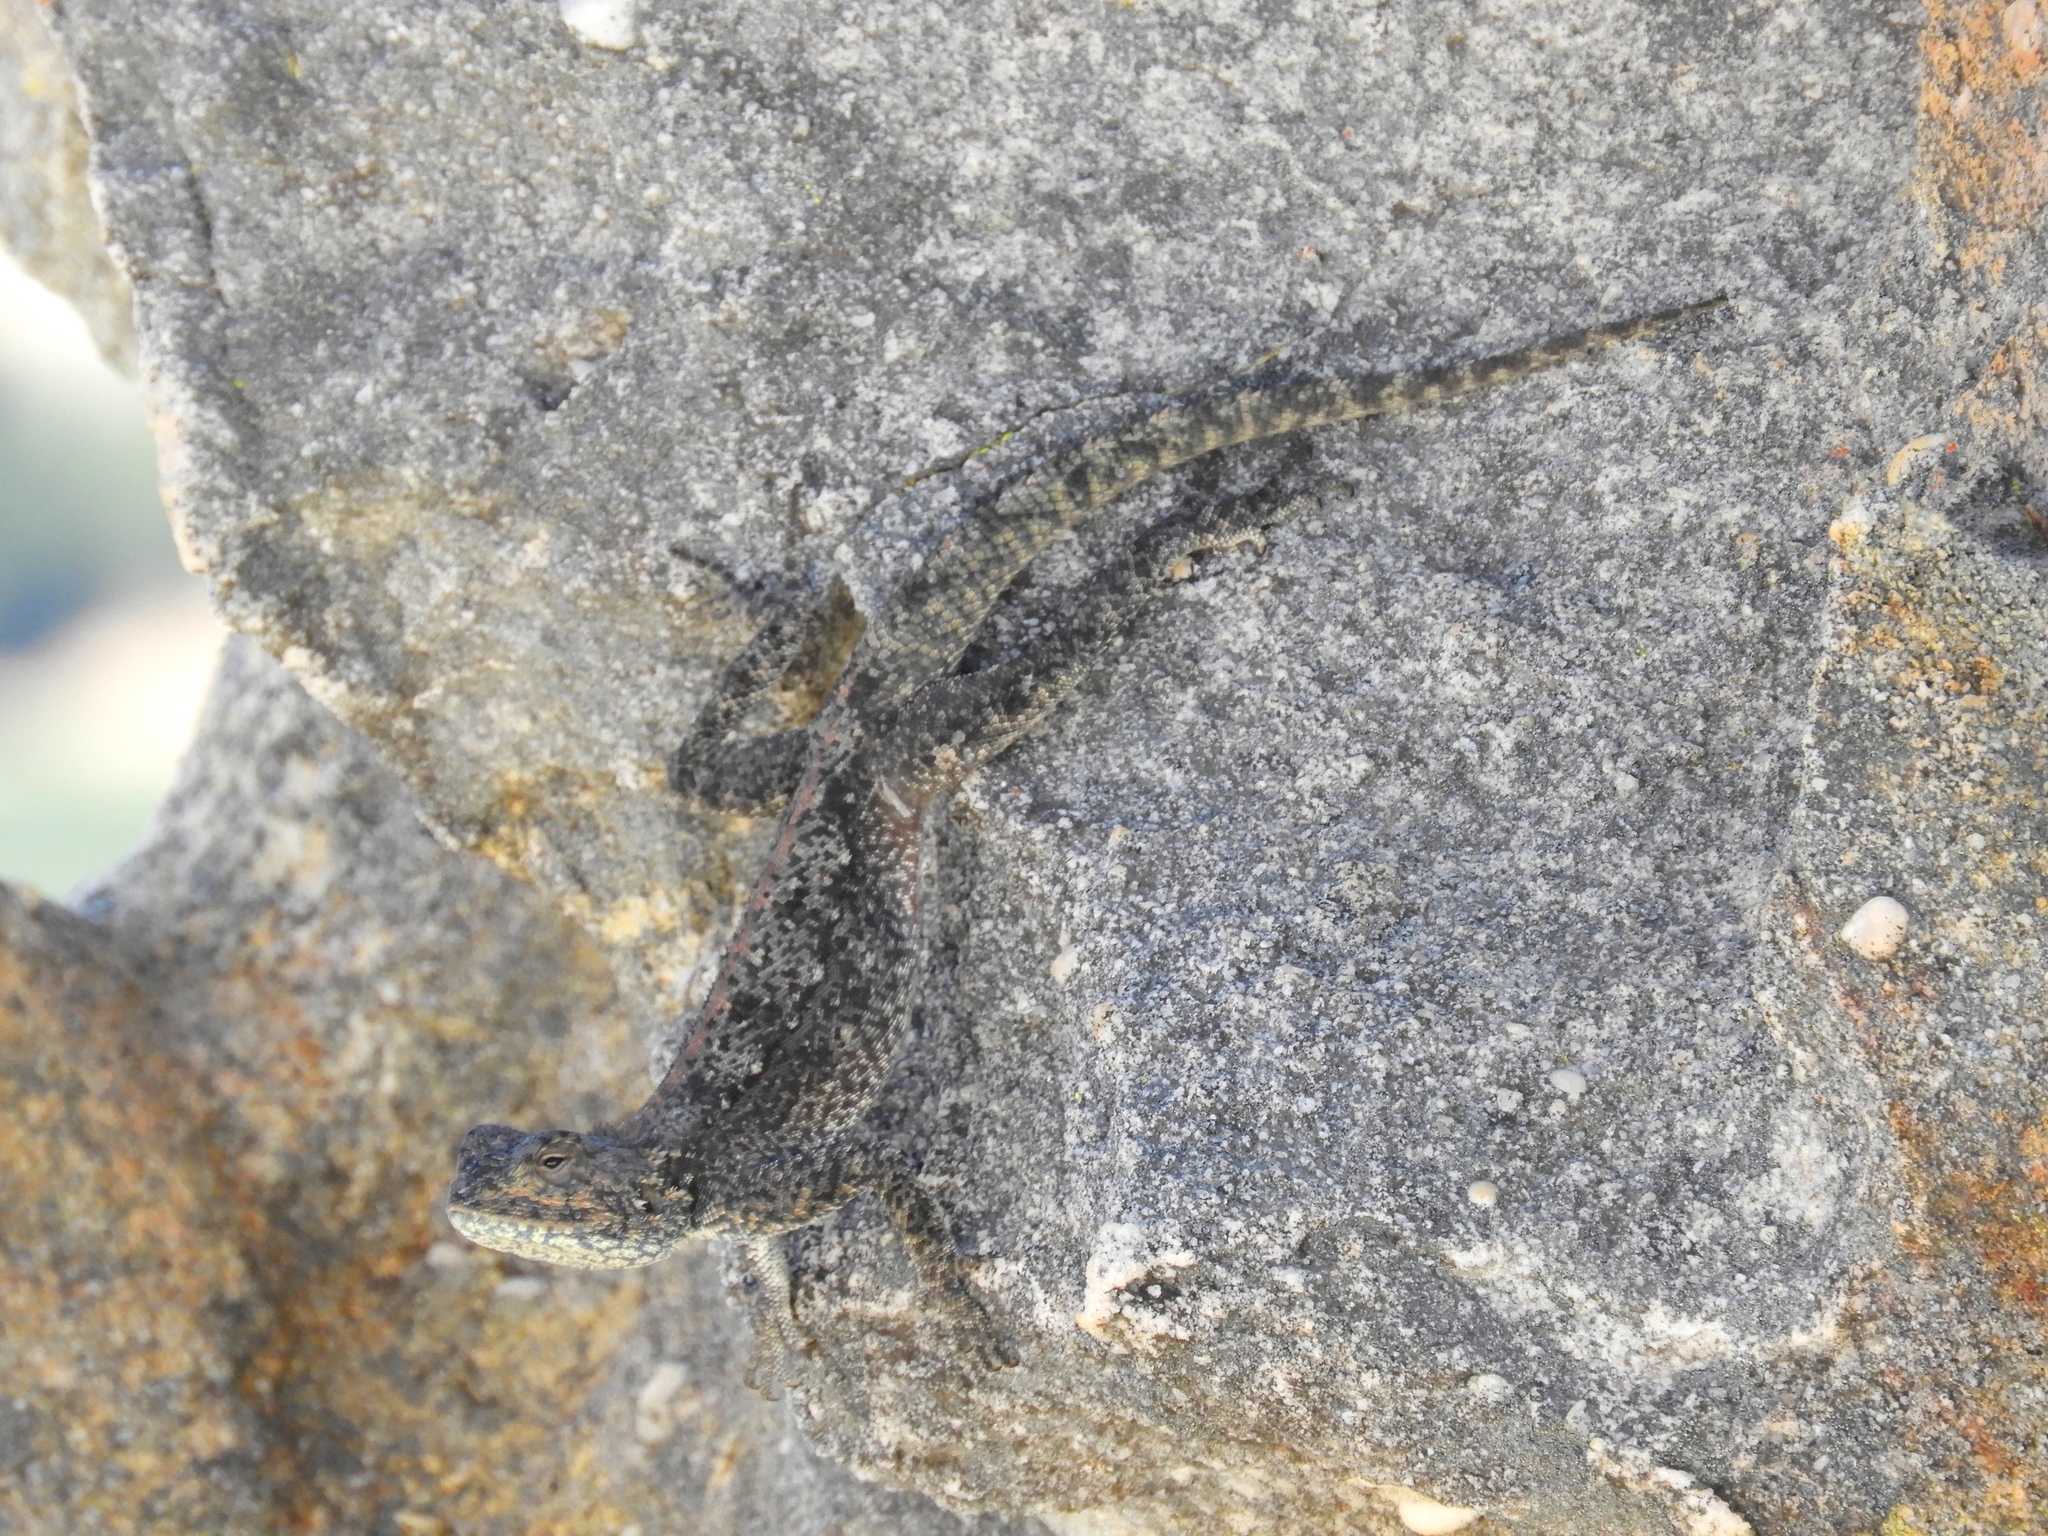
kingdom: Animalia
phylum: Chordata
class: Squamata
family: Agamidae
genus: Agama
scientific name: Agama atra
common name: Southern african rock agama
